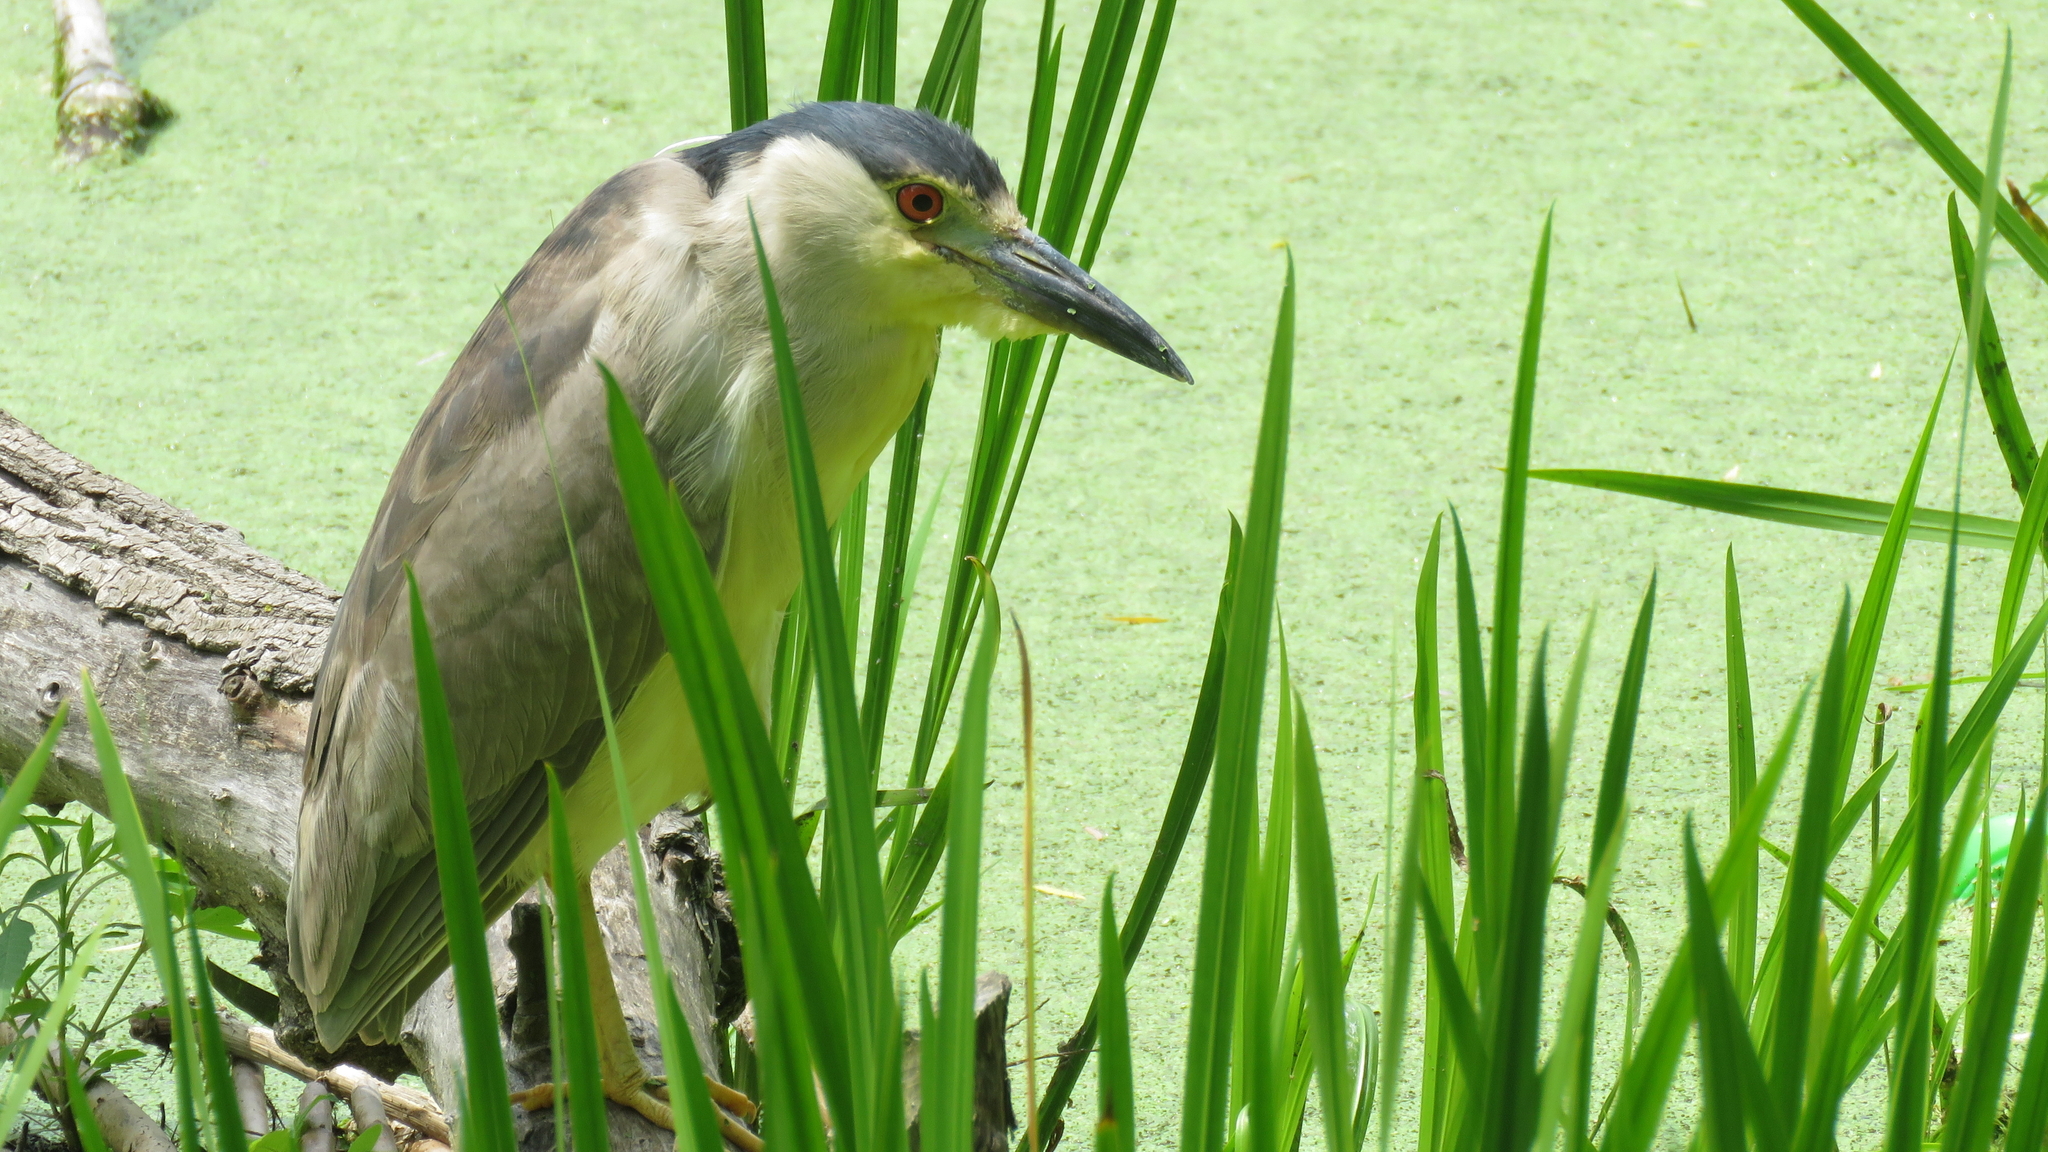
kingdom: Animalia
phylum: Chordata
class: Aves
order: Pelecaniformes
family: Ardeidae
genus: Nycticorax
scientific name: Nycticorax nycticorax
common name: Black-crowned night heron
